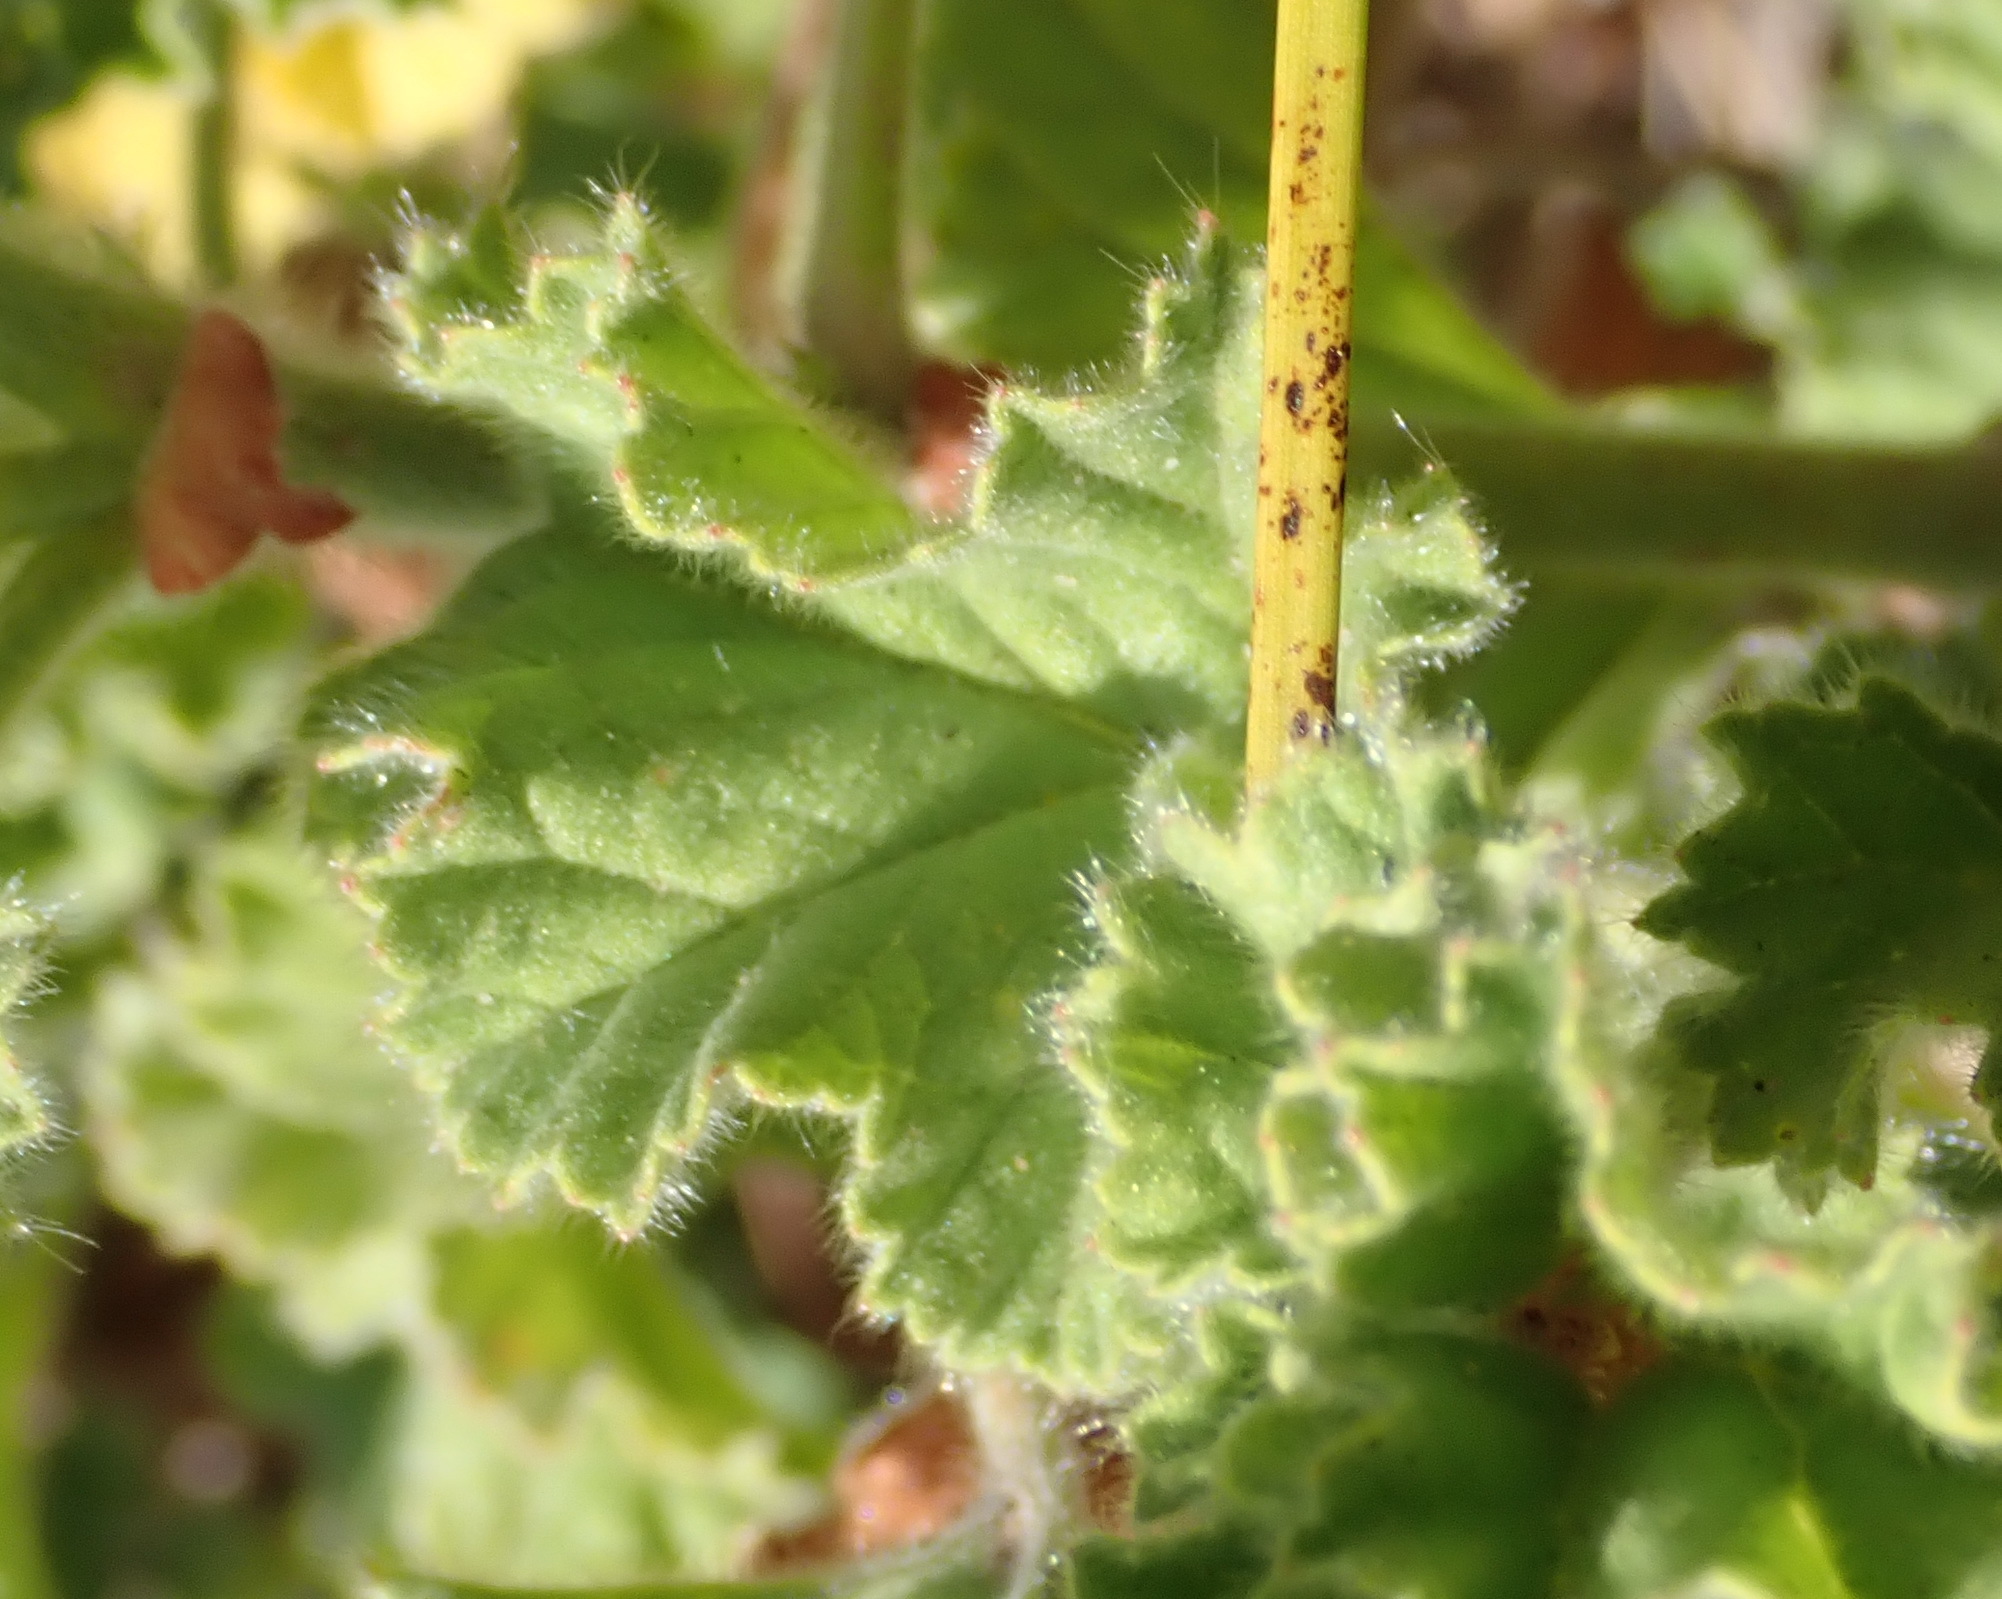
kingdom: Plantae
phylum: Tracheophyta
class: Magnoliopsida
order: Geraniales
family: Geraniaceae
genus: Pelargonium
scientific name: Pelargonium capitatum
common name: Rose scented geranium
